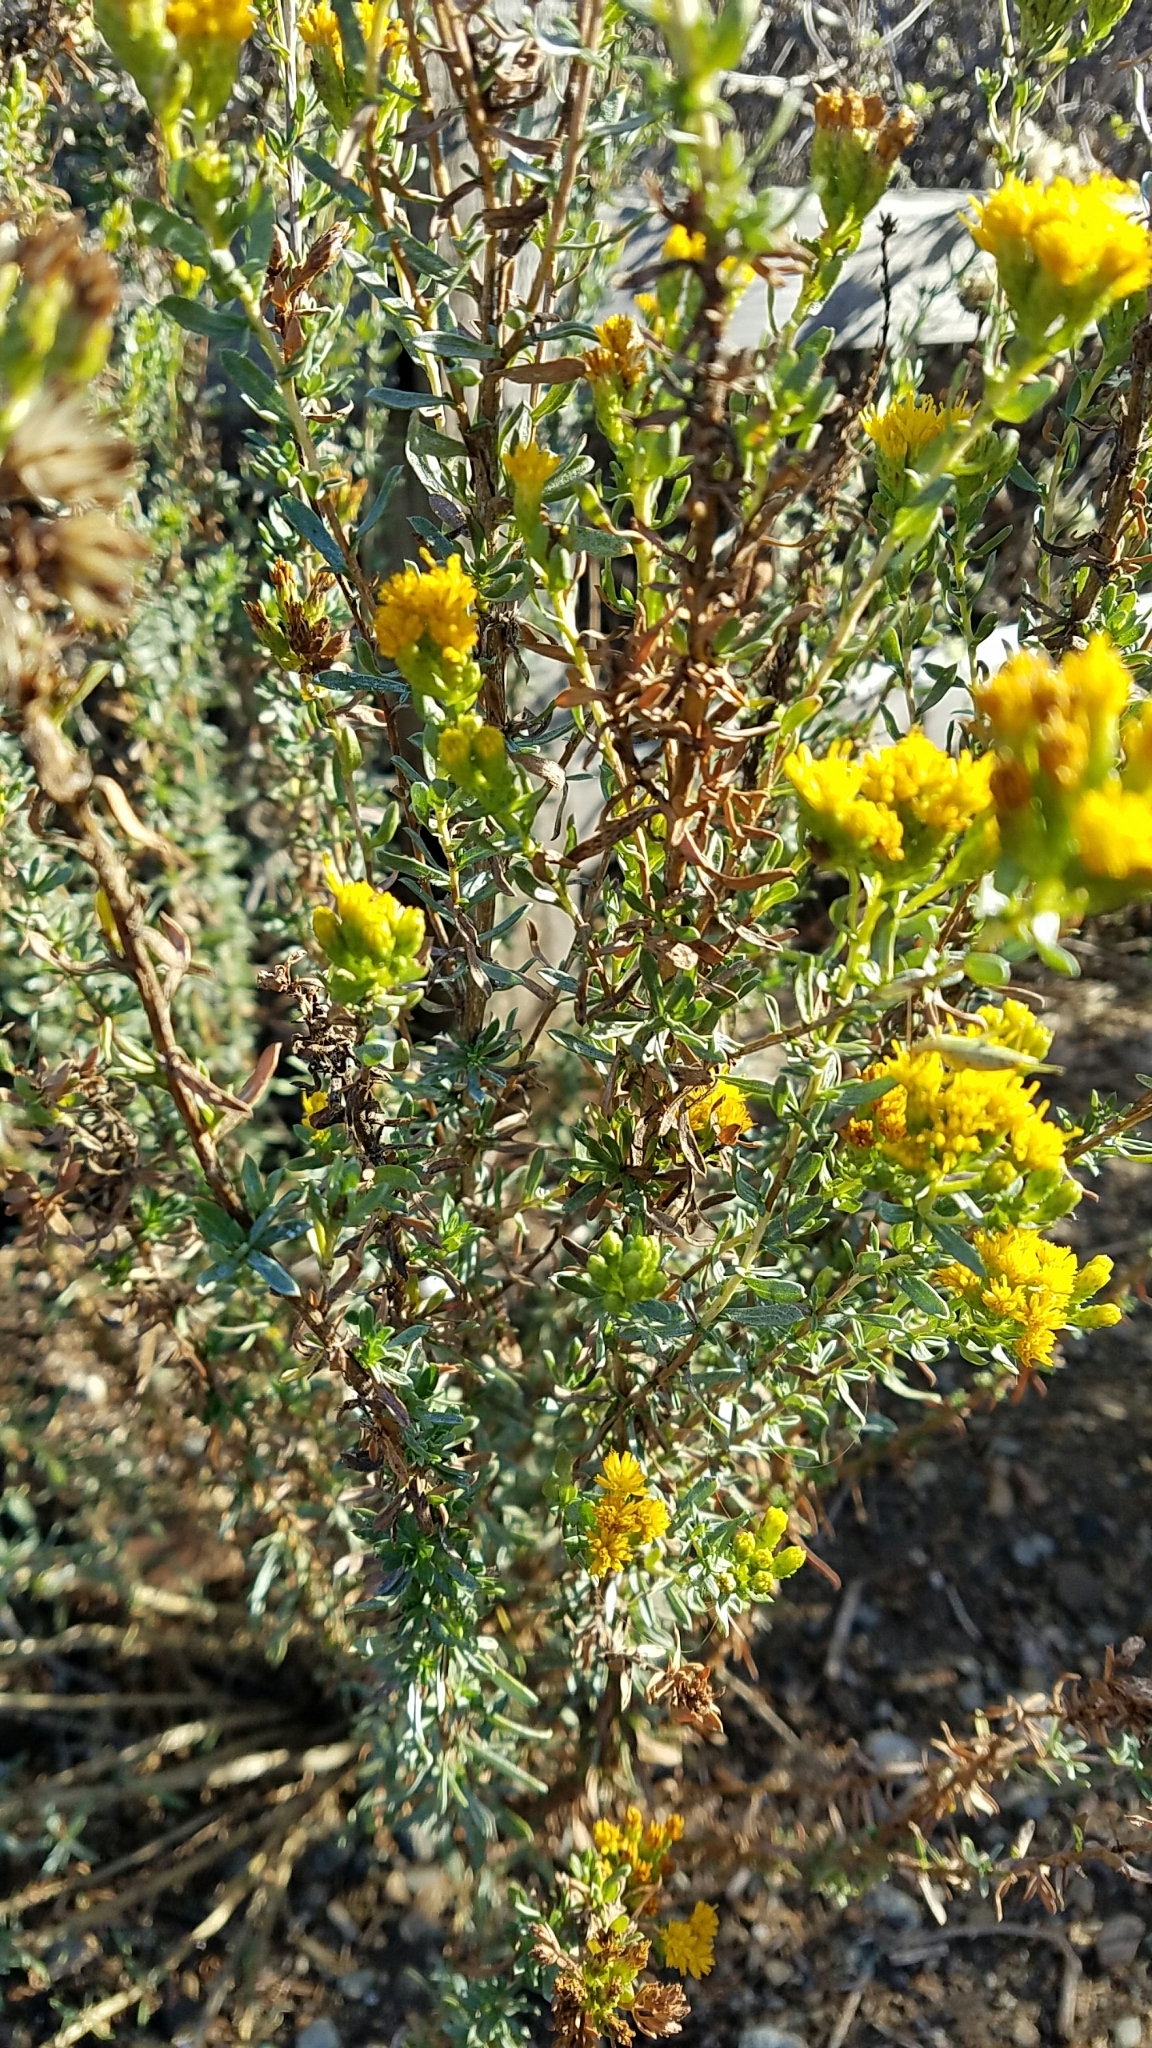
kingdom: Plantae
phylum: Tracheophyta
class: Magnoliopsida
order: Asterales
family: Asteraceae
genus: Isocoma
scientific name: Isocoma menziesii
